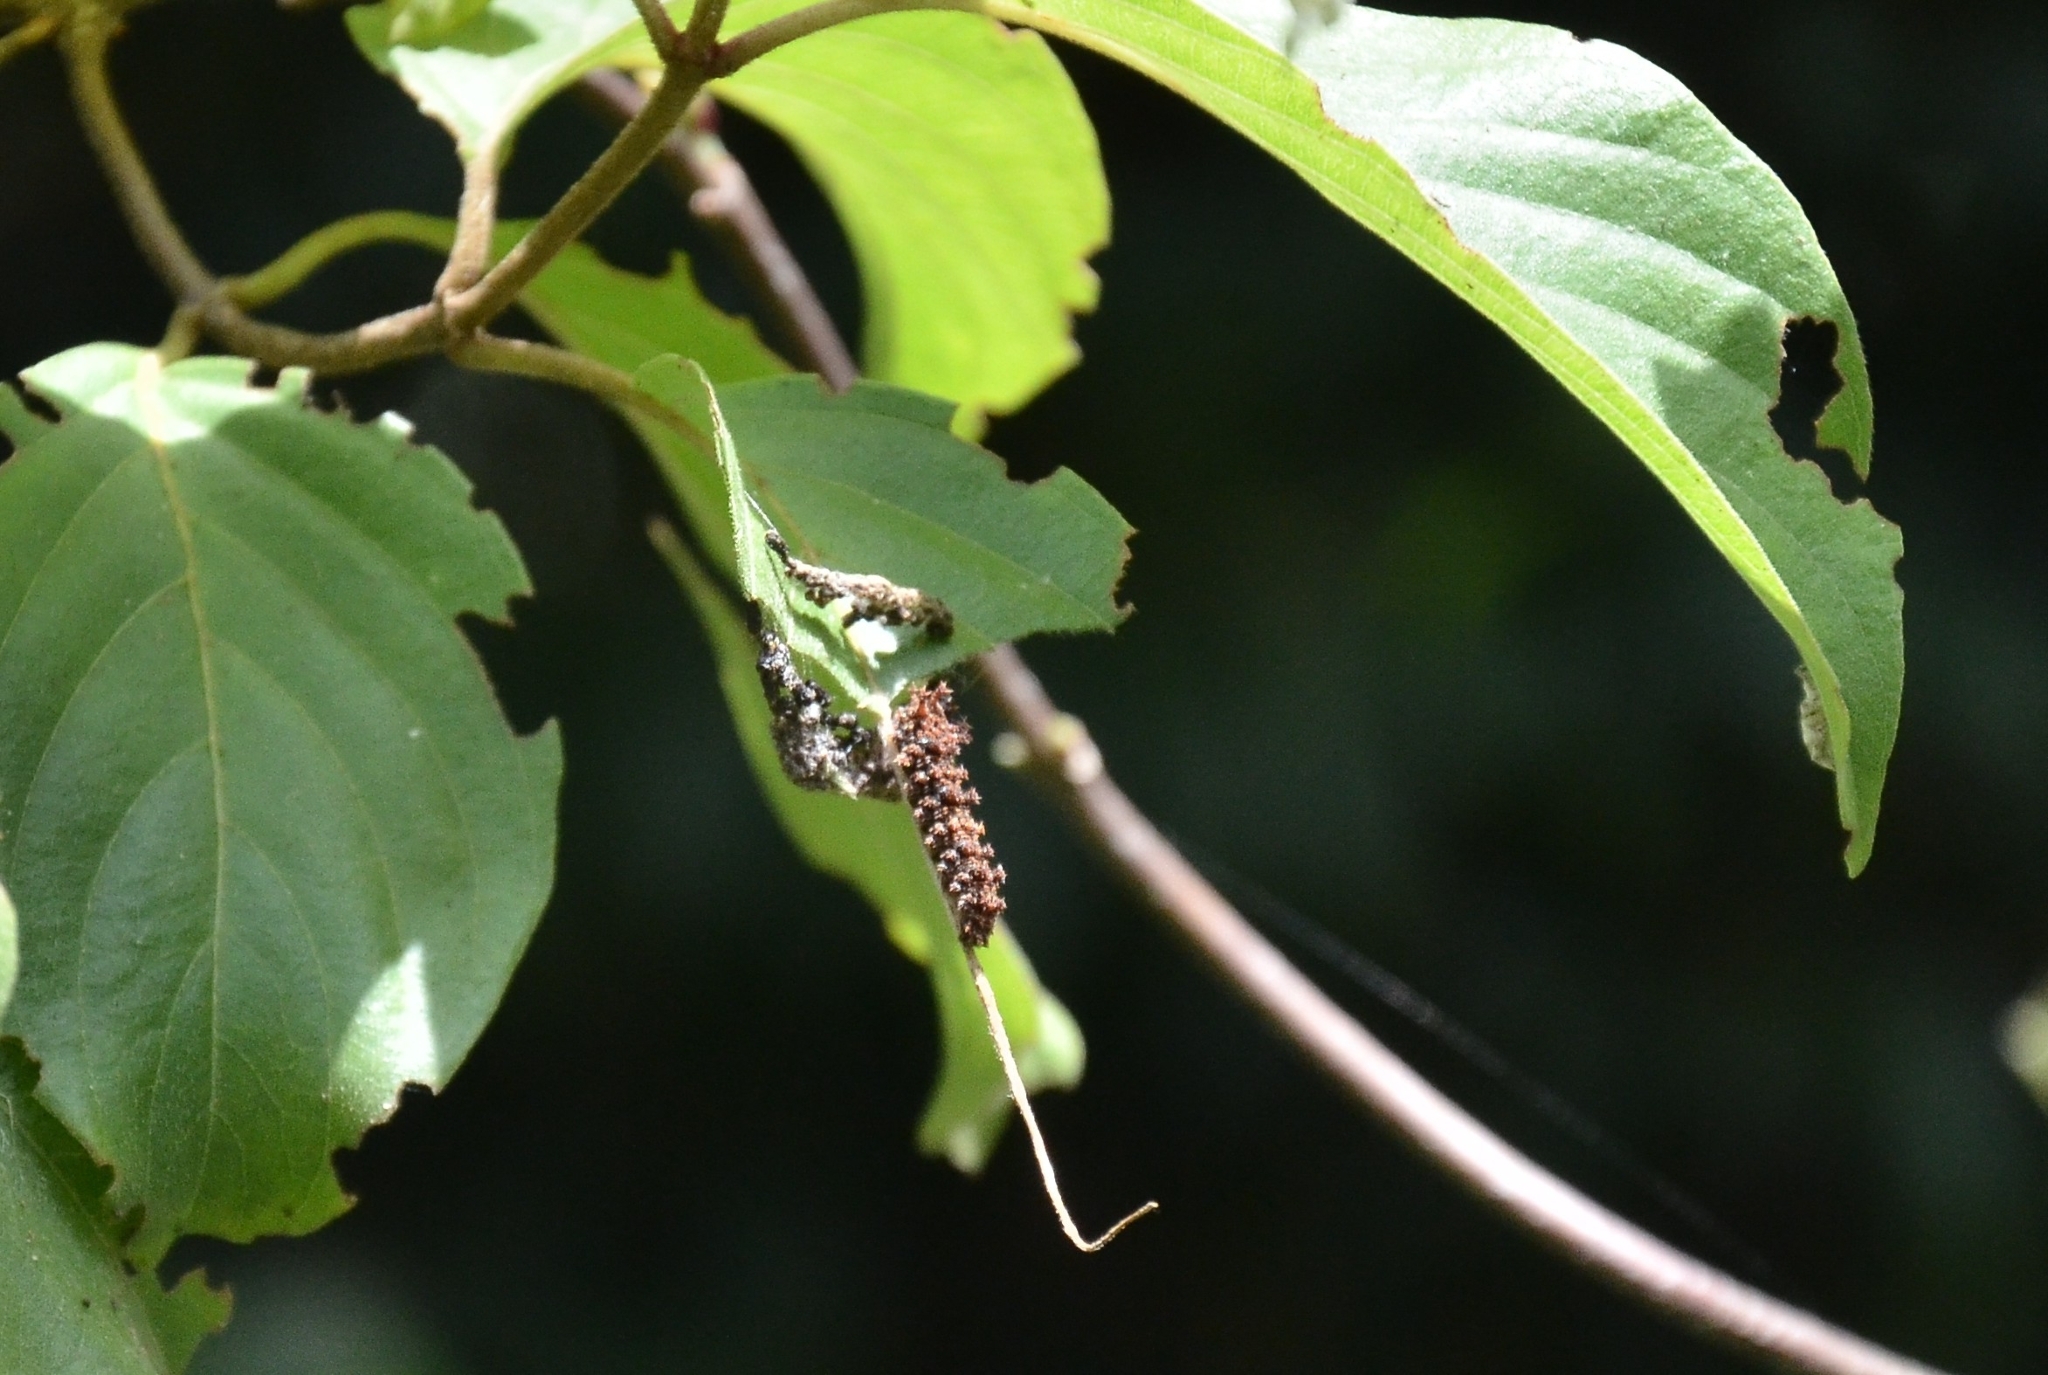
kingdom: Animalia
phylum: Arthropoda
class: Insecta
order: Lepidoptera
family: Nymphalidae
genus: Limenitis
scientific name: Limenitis Moduza procris
